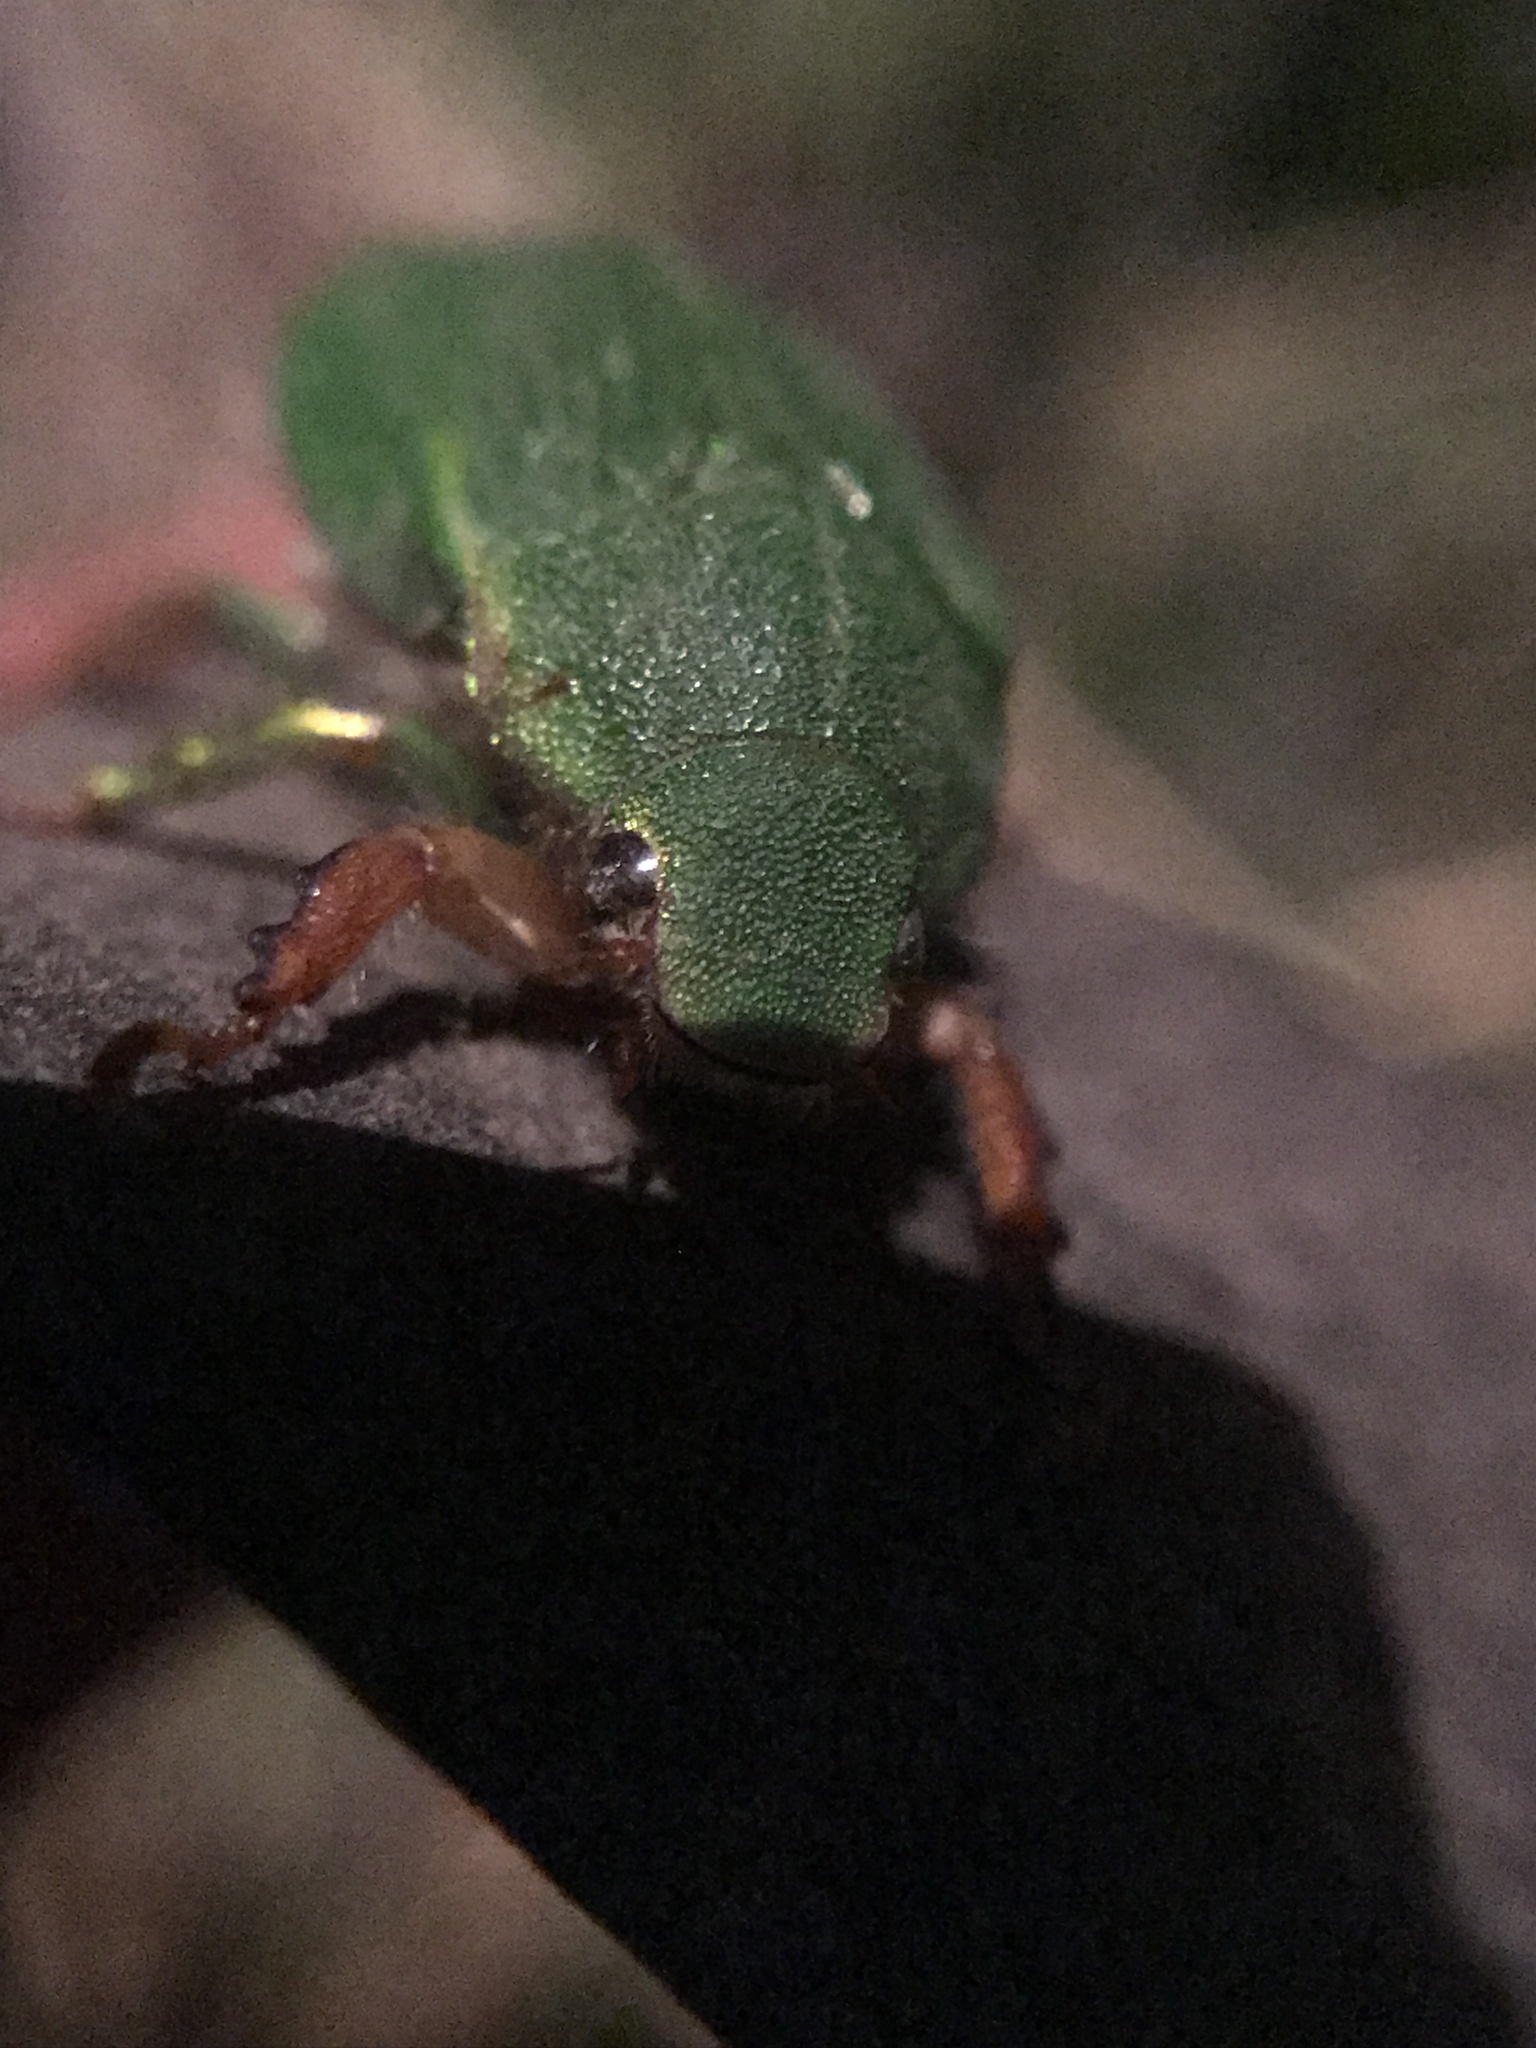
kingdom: Animalia
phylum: Arthropoda
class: Insecta
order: Coleoptera
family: Scarabaeidae
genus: Hylamorpha
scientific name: Hylamorpha elegans
